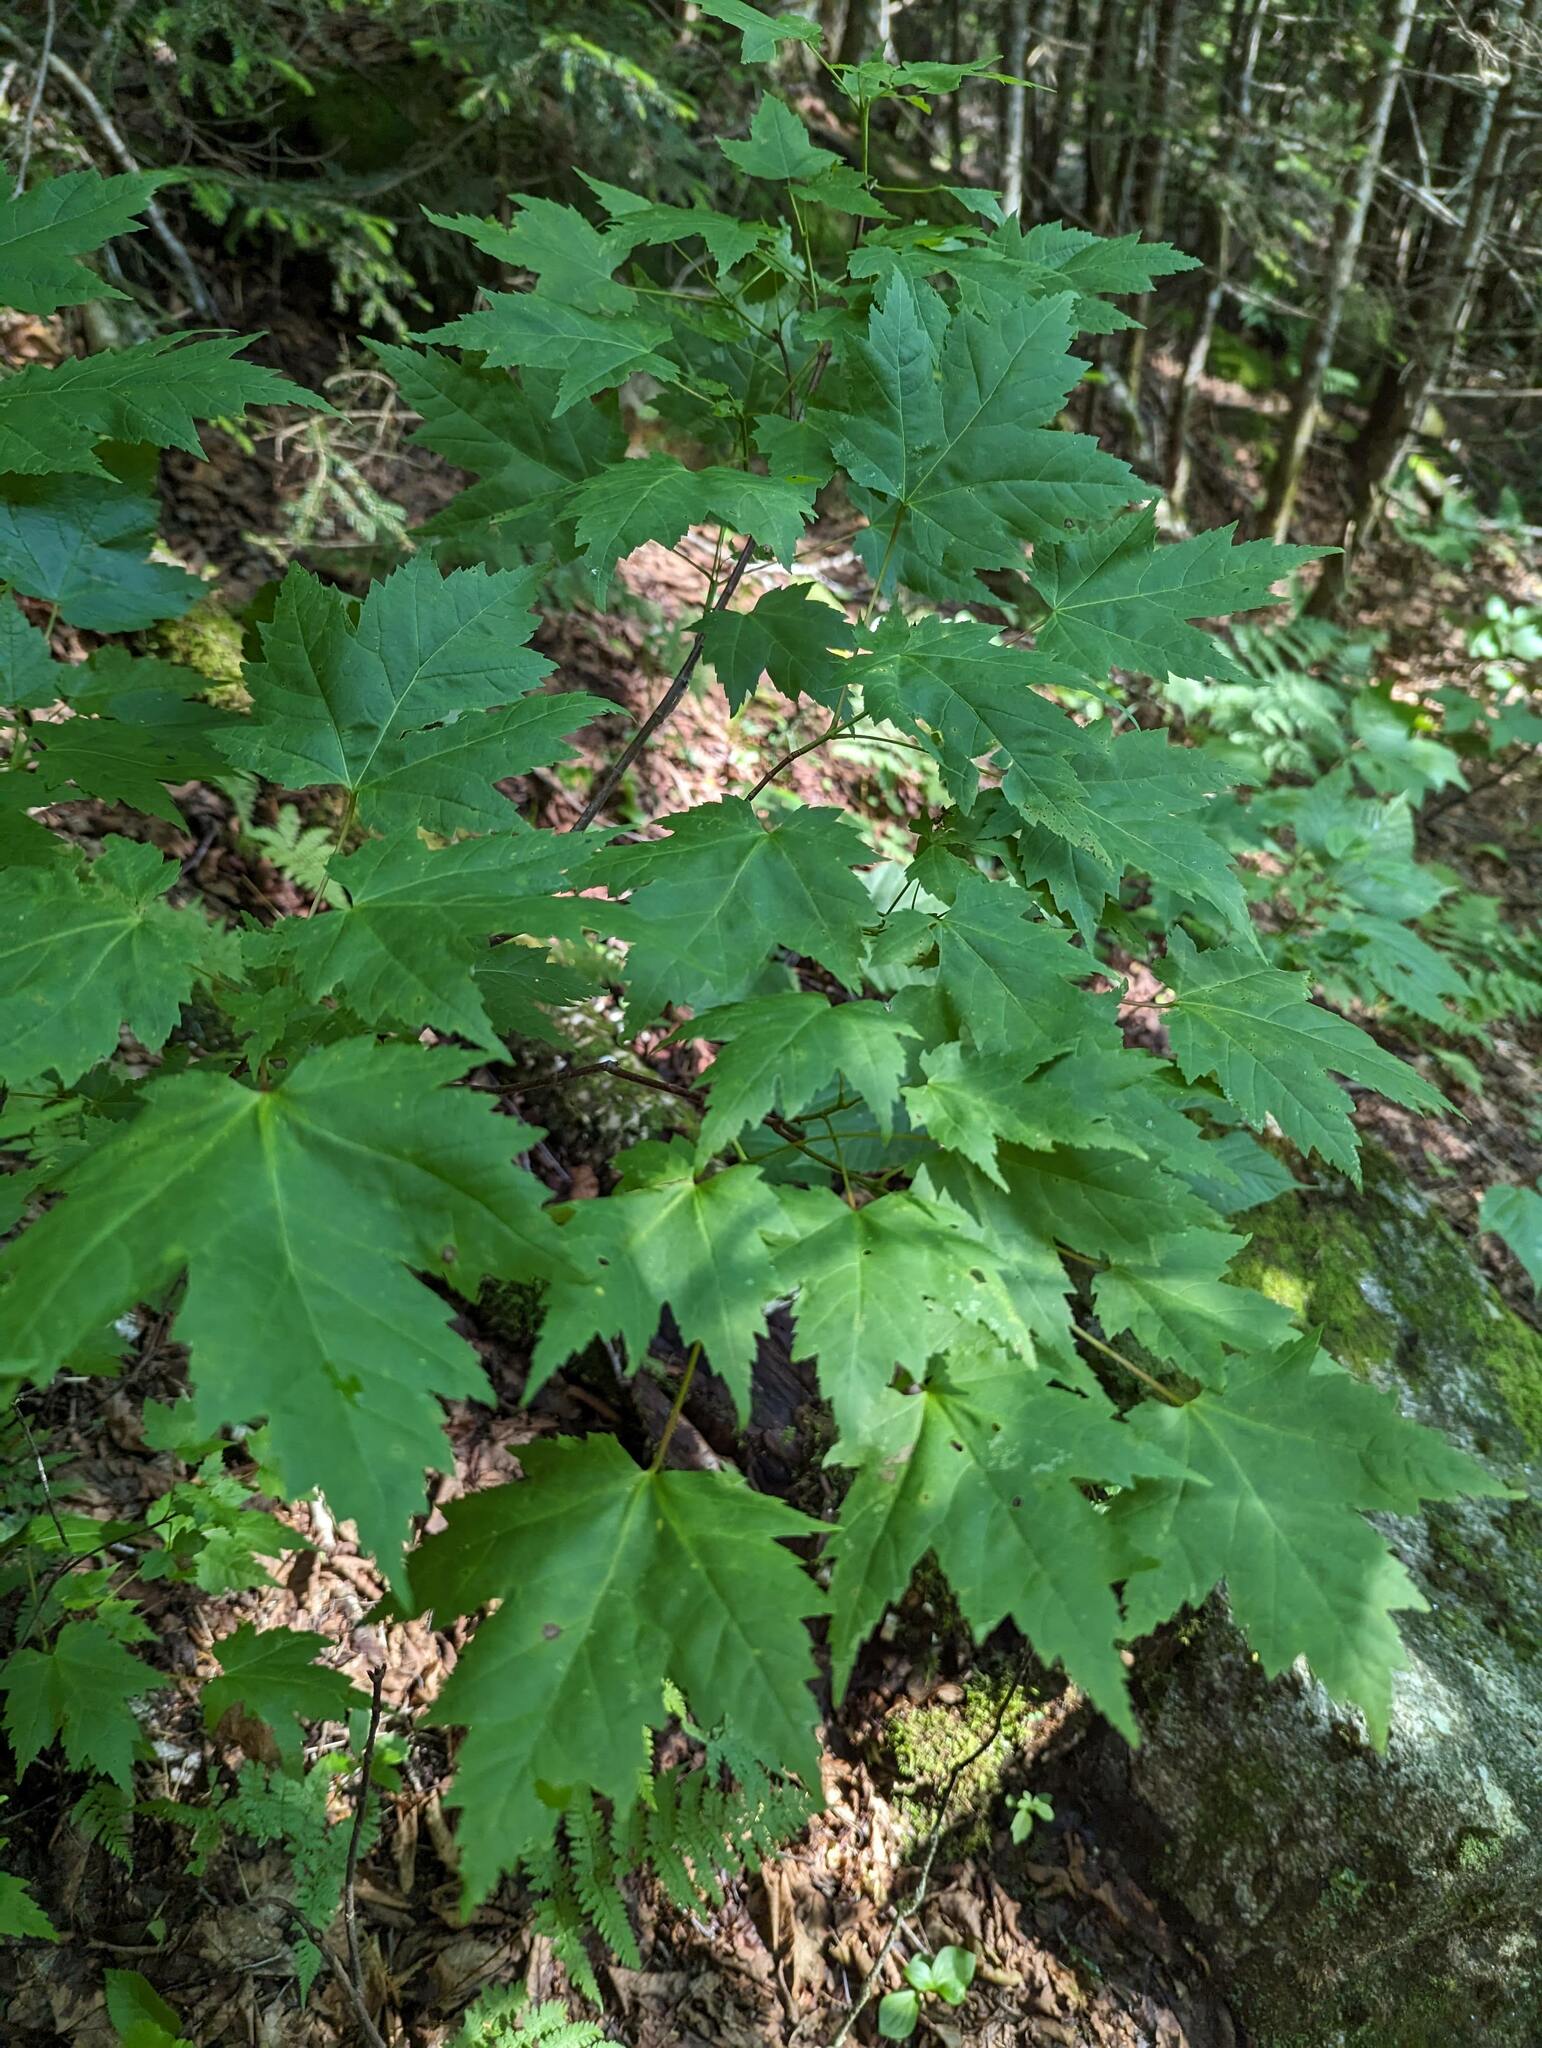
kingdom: Plantae
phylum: Tracheophyta
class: Magnoliopsida
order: Sapindales
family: Sapindaceae
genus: Acer
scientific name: Acer rubrum
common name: Red maple
